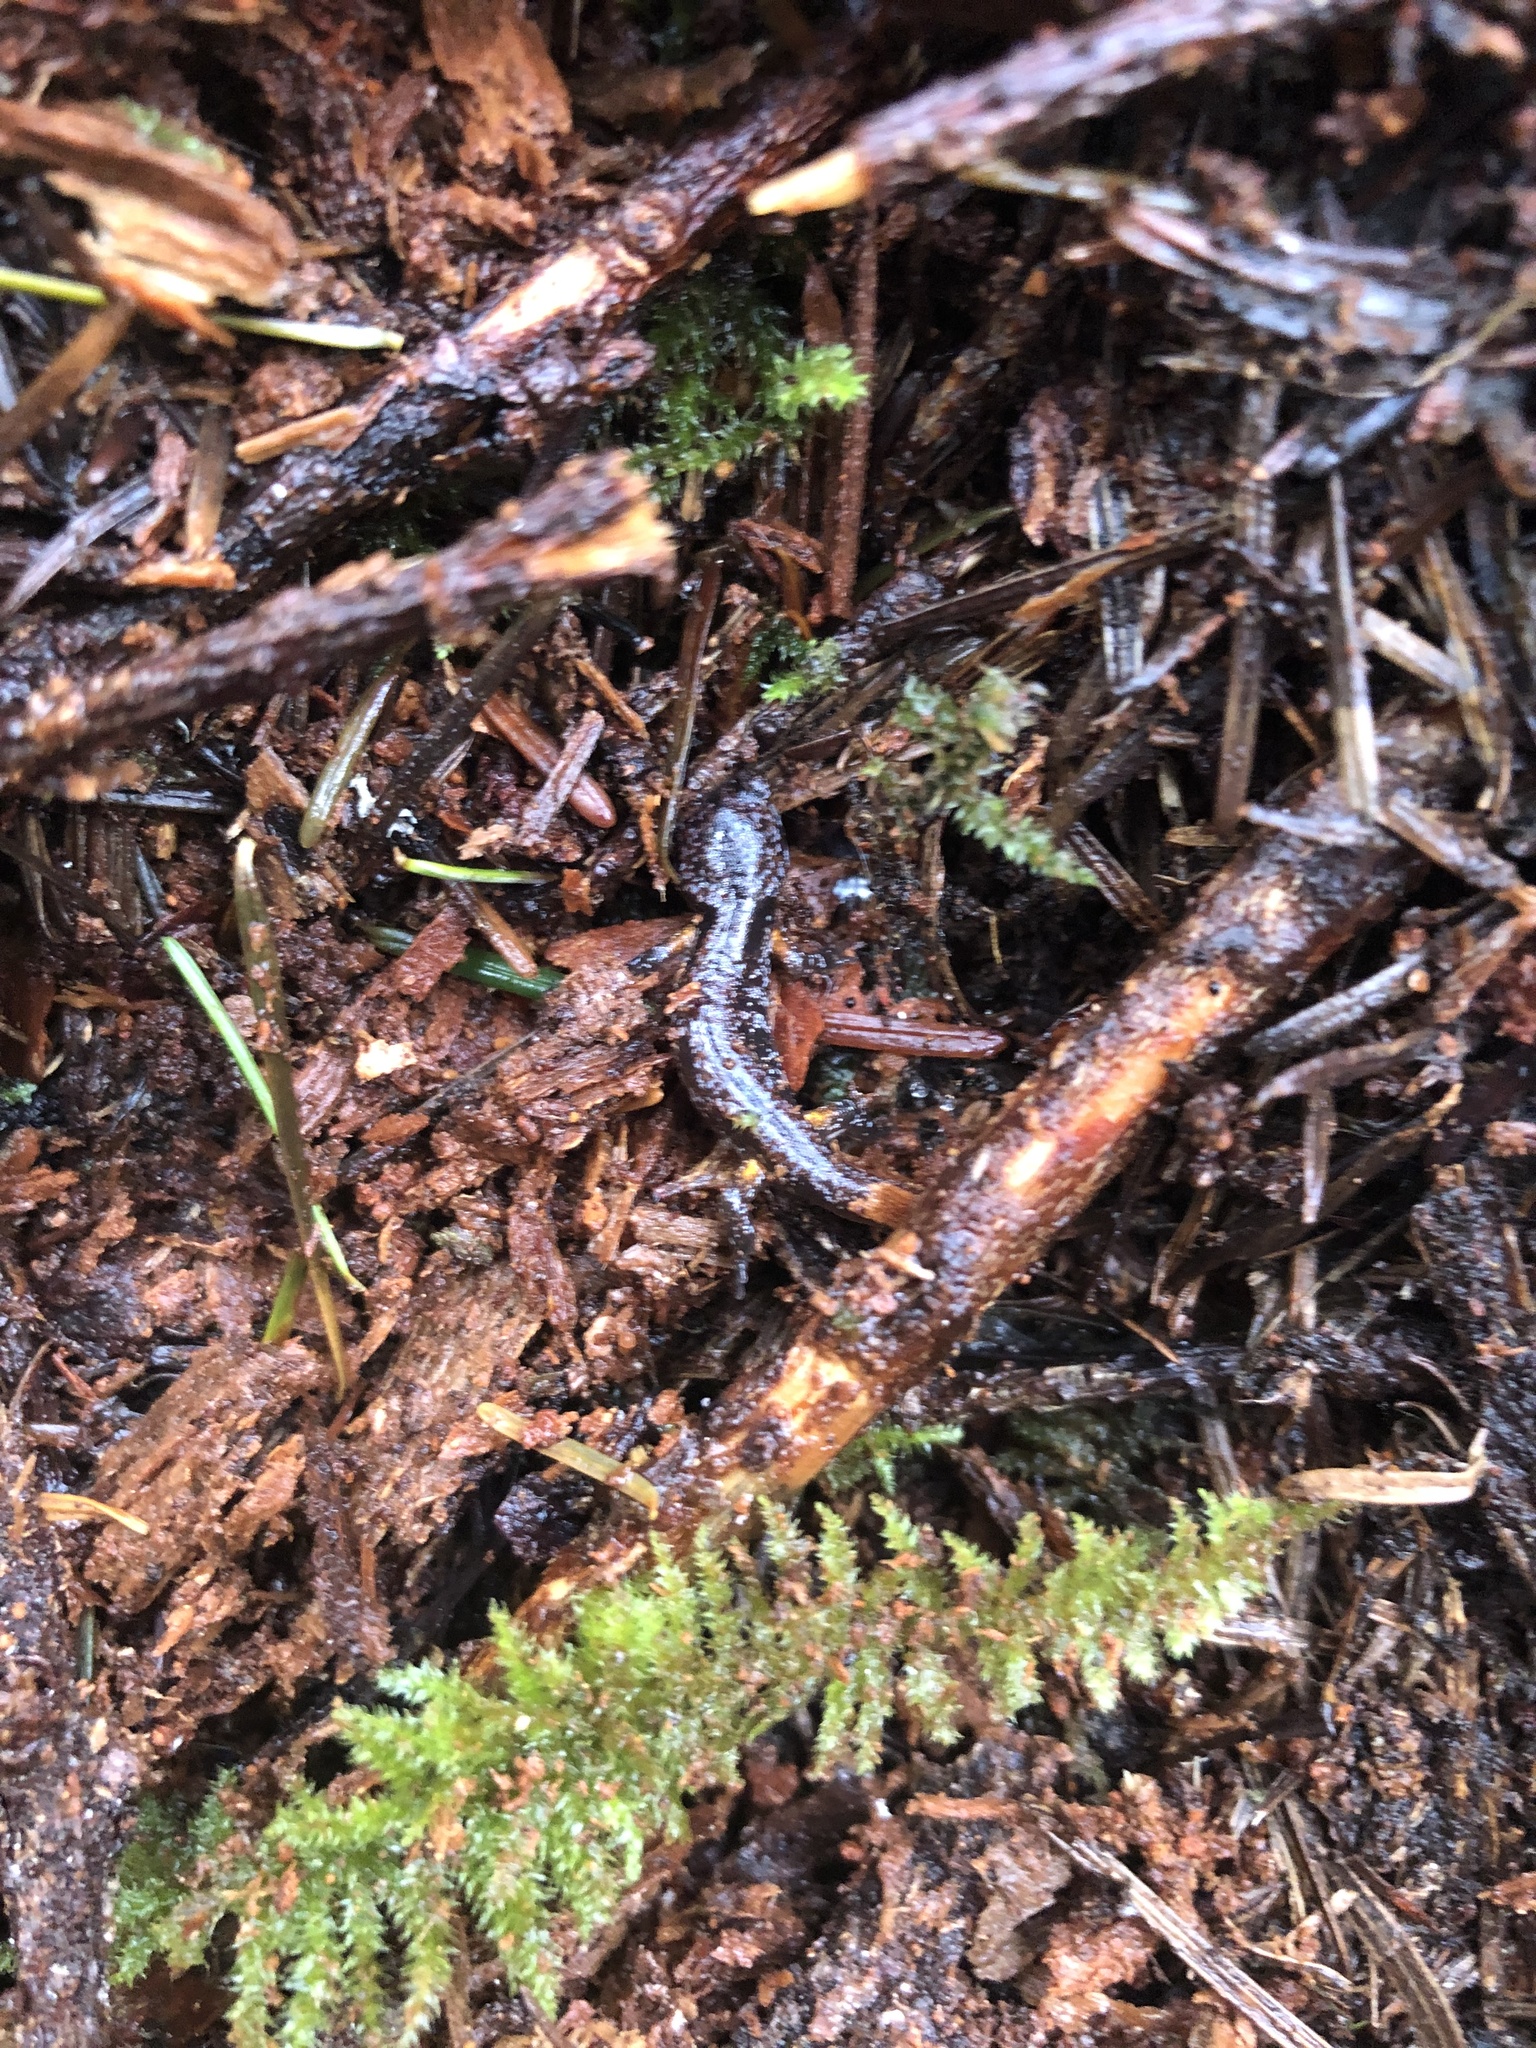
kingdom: Animalia
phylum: Chordata
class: Amphibia
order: Caudata
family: Plethodontidae
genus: Ensatina
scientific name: Ensatina eschscholtzii
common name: Ensatina
